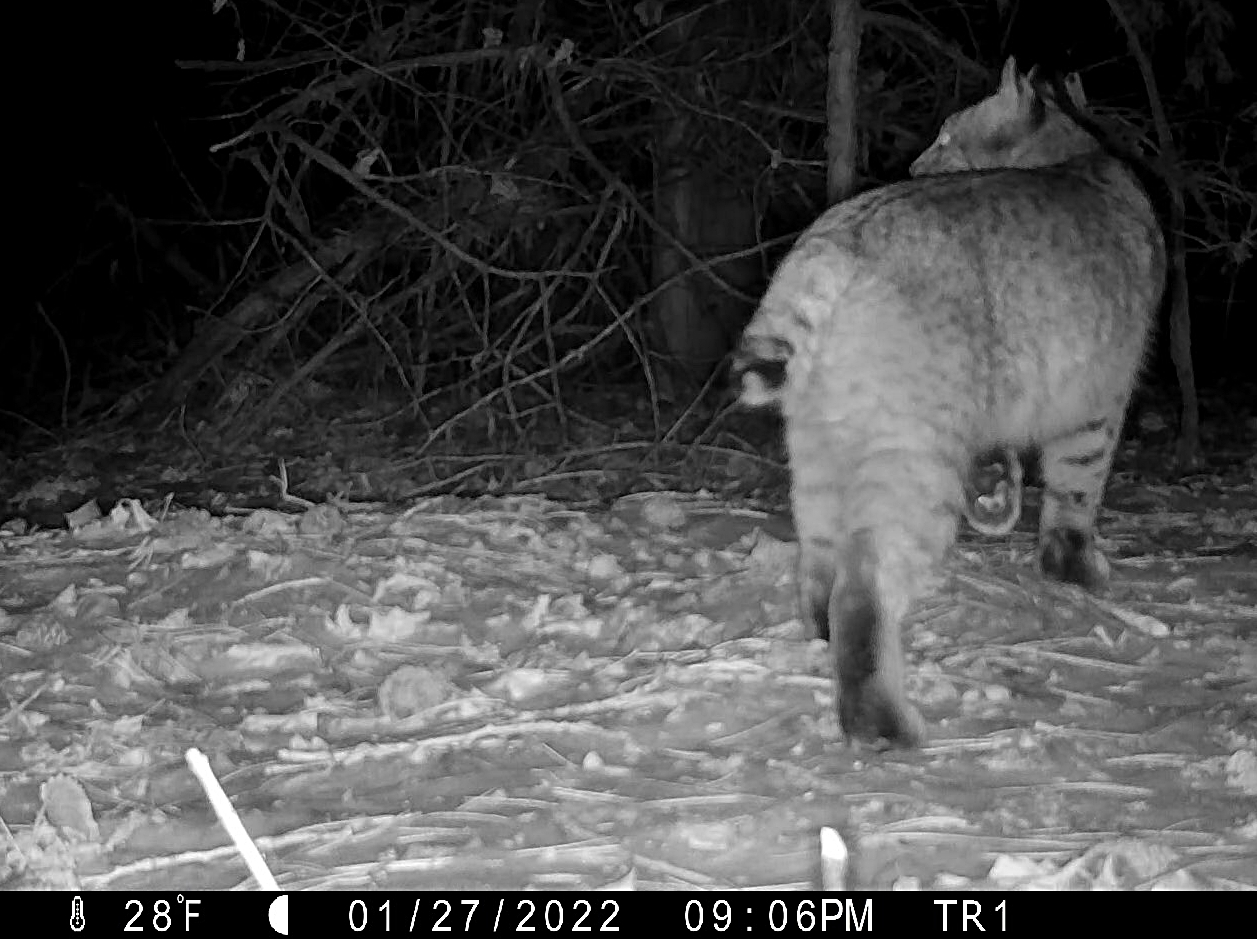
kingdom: Animalia
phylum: Chordata
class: Mammalia
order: Carnivora
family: Felidae
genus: Lynx
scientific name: Lynx rufus
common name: Bobcat
